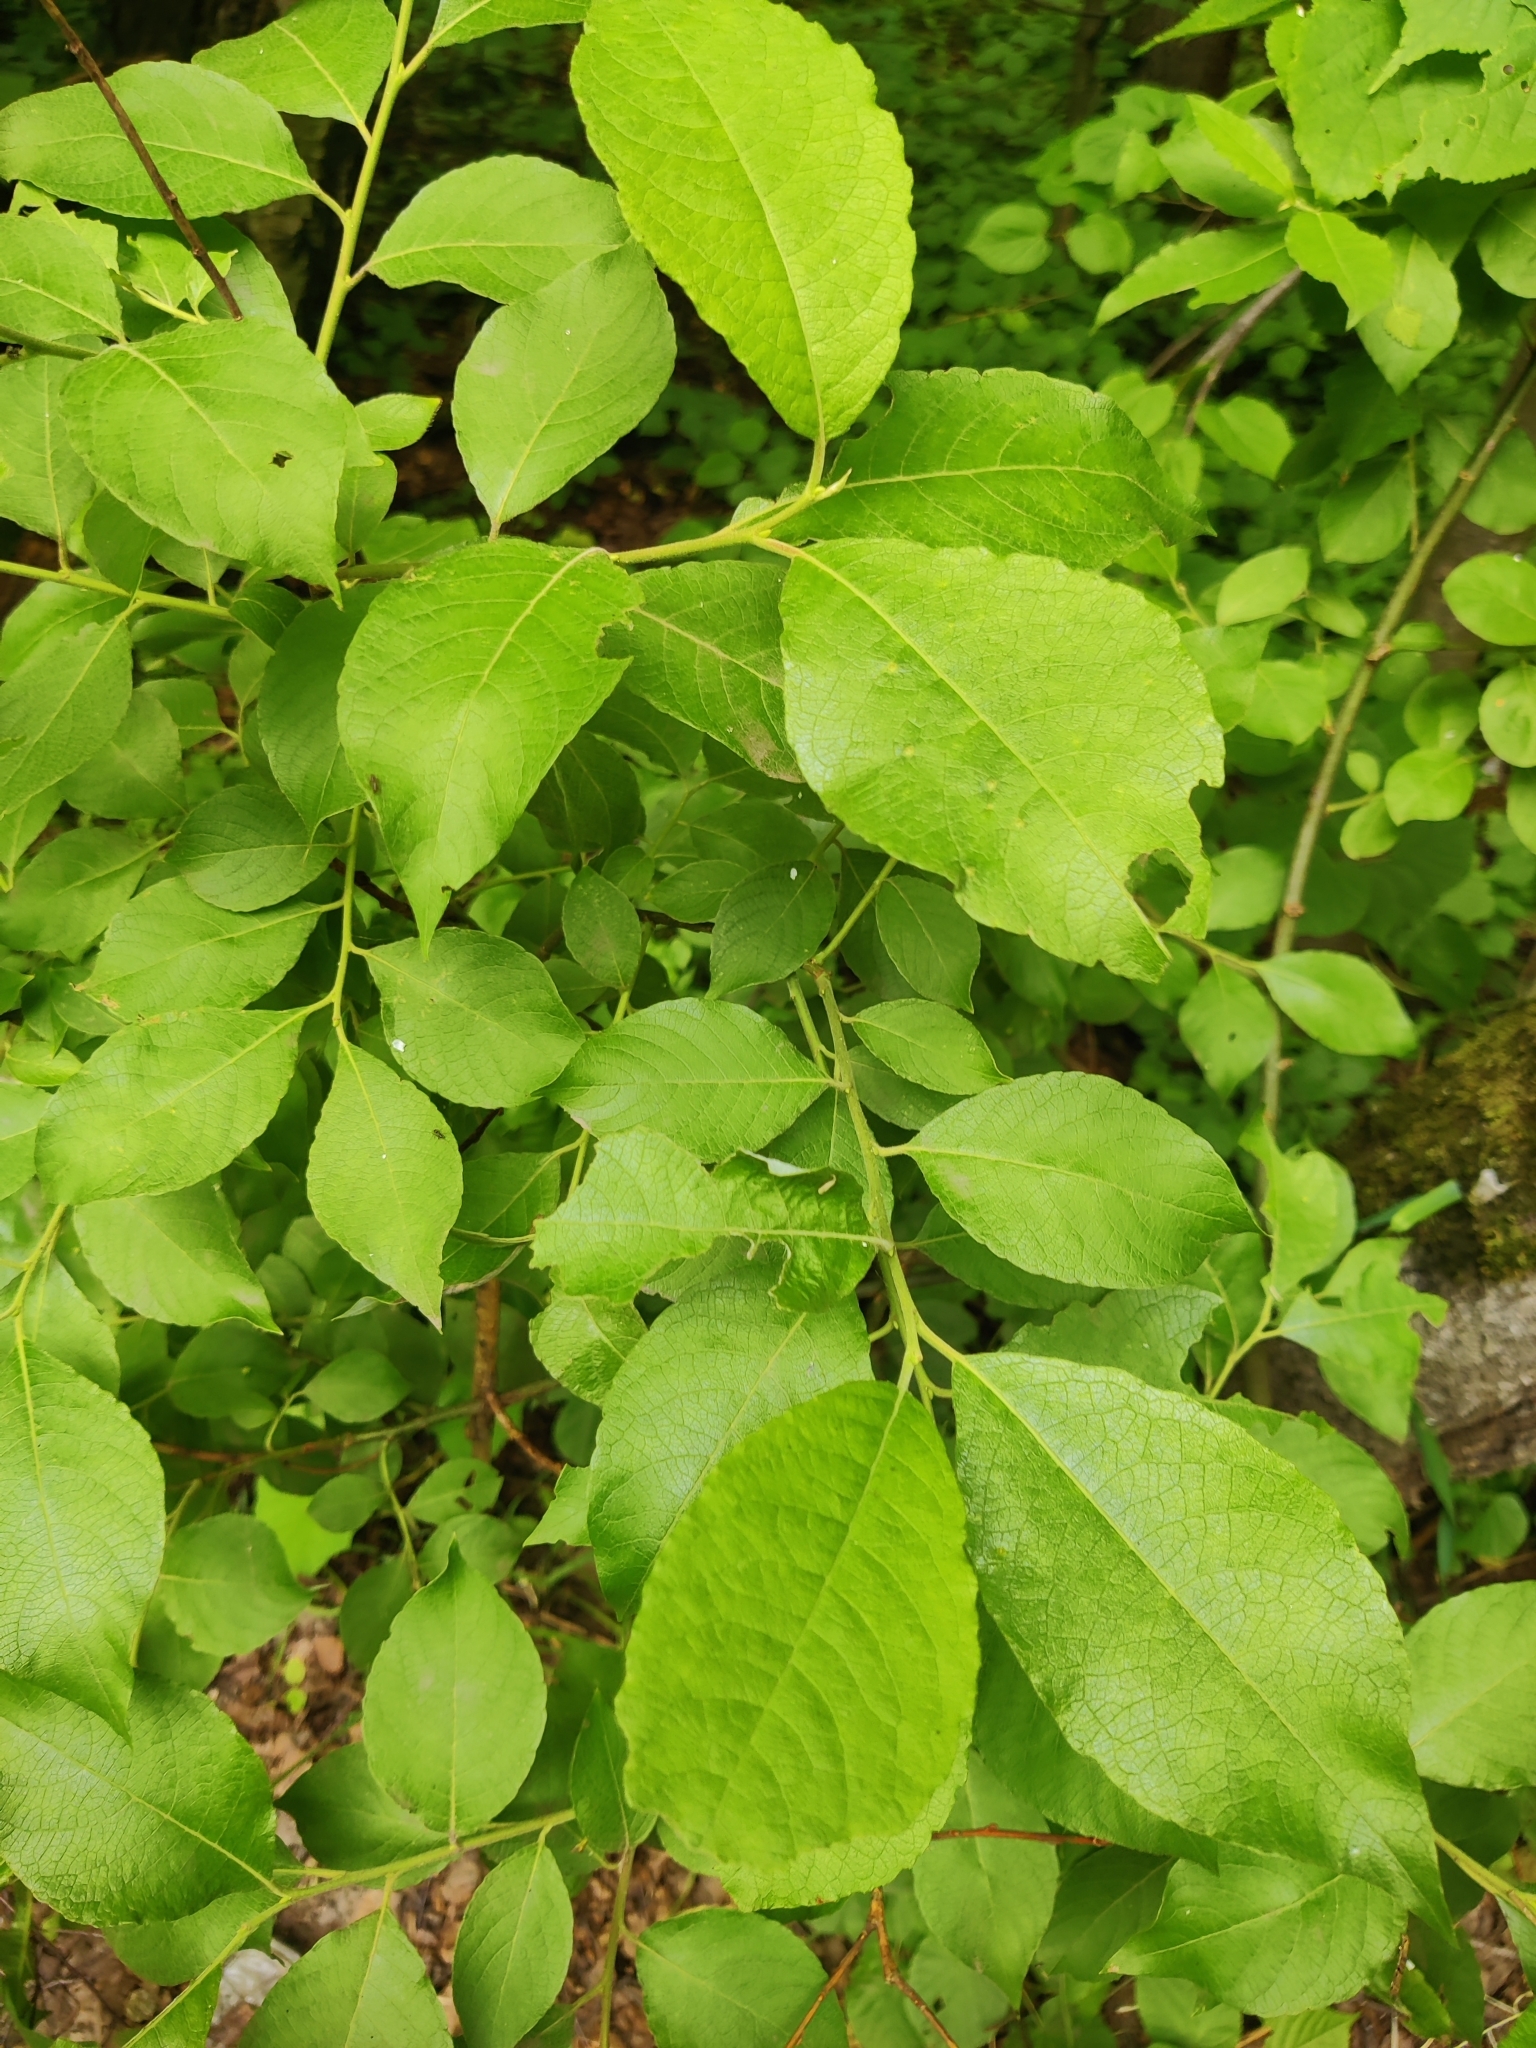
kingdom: Plantae
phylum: Tracheophyta
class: Magnoliopsida
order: Malpighiales
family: Salicaceae
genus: Salix
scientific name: Salix caprea
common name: Goat willow
